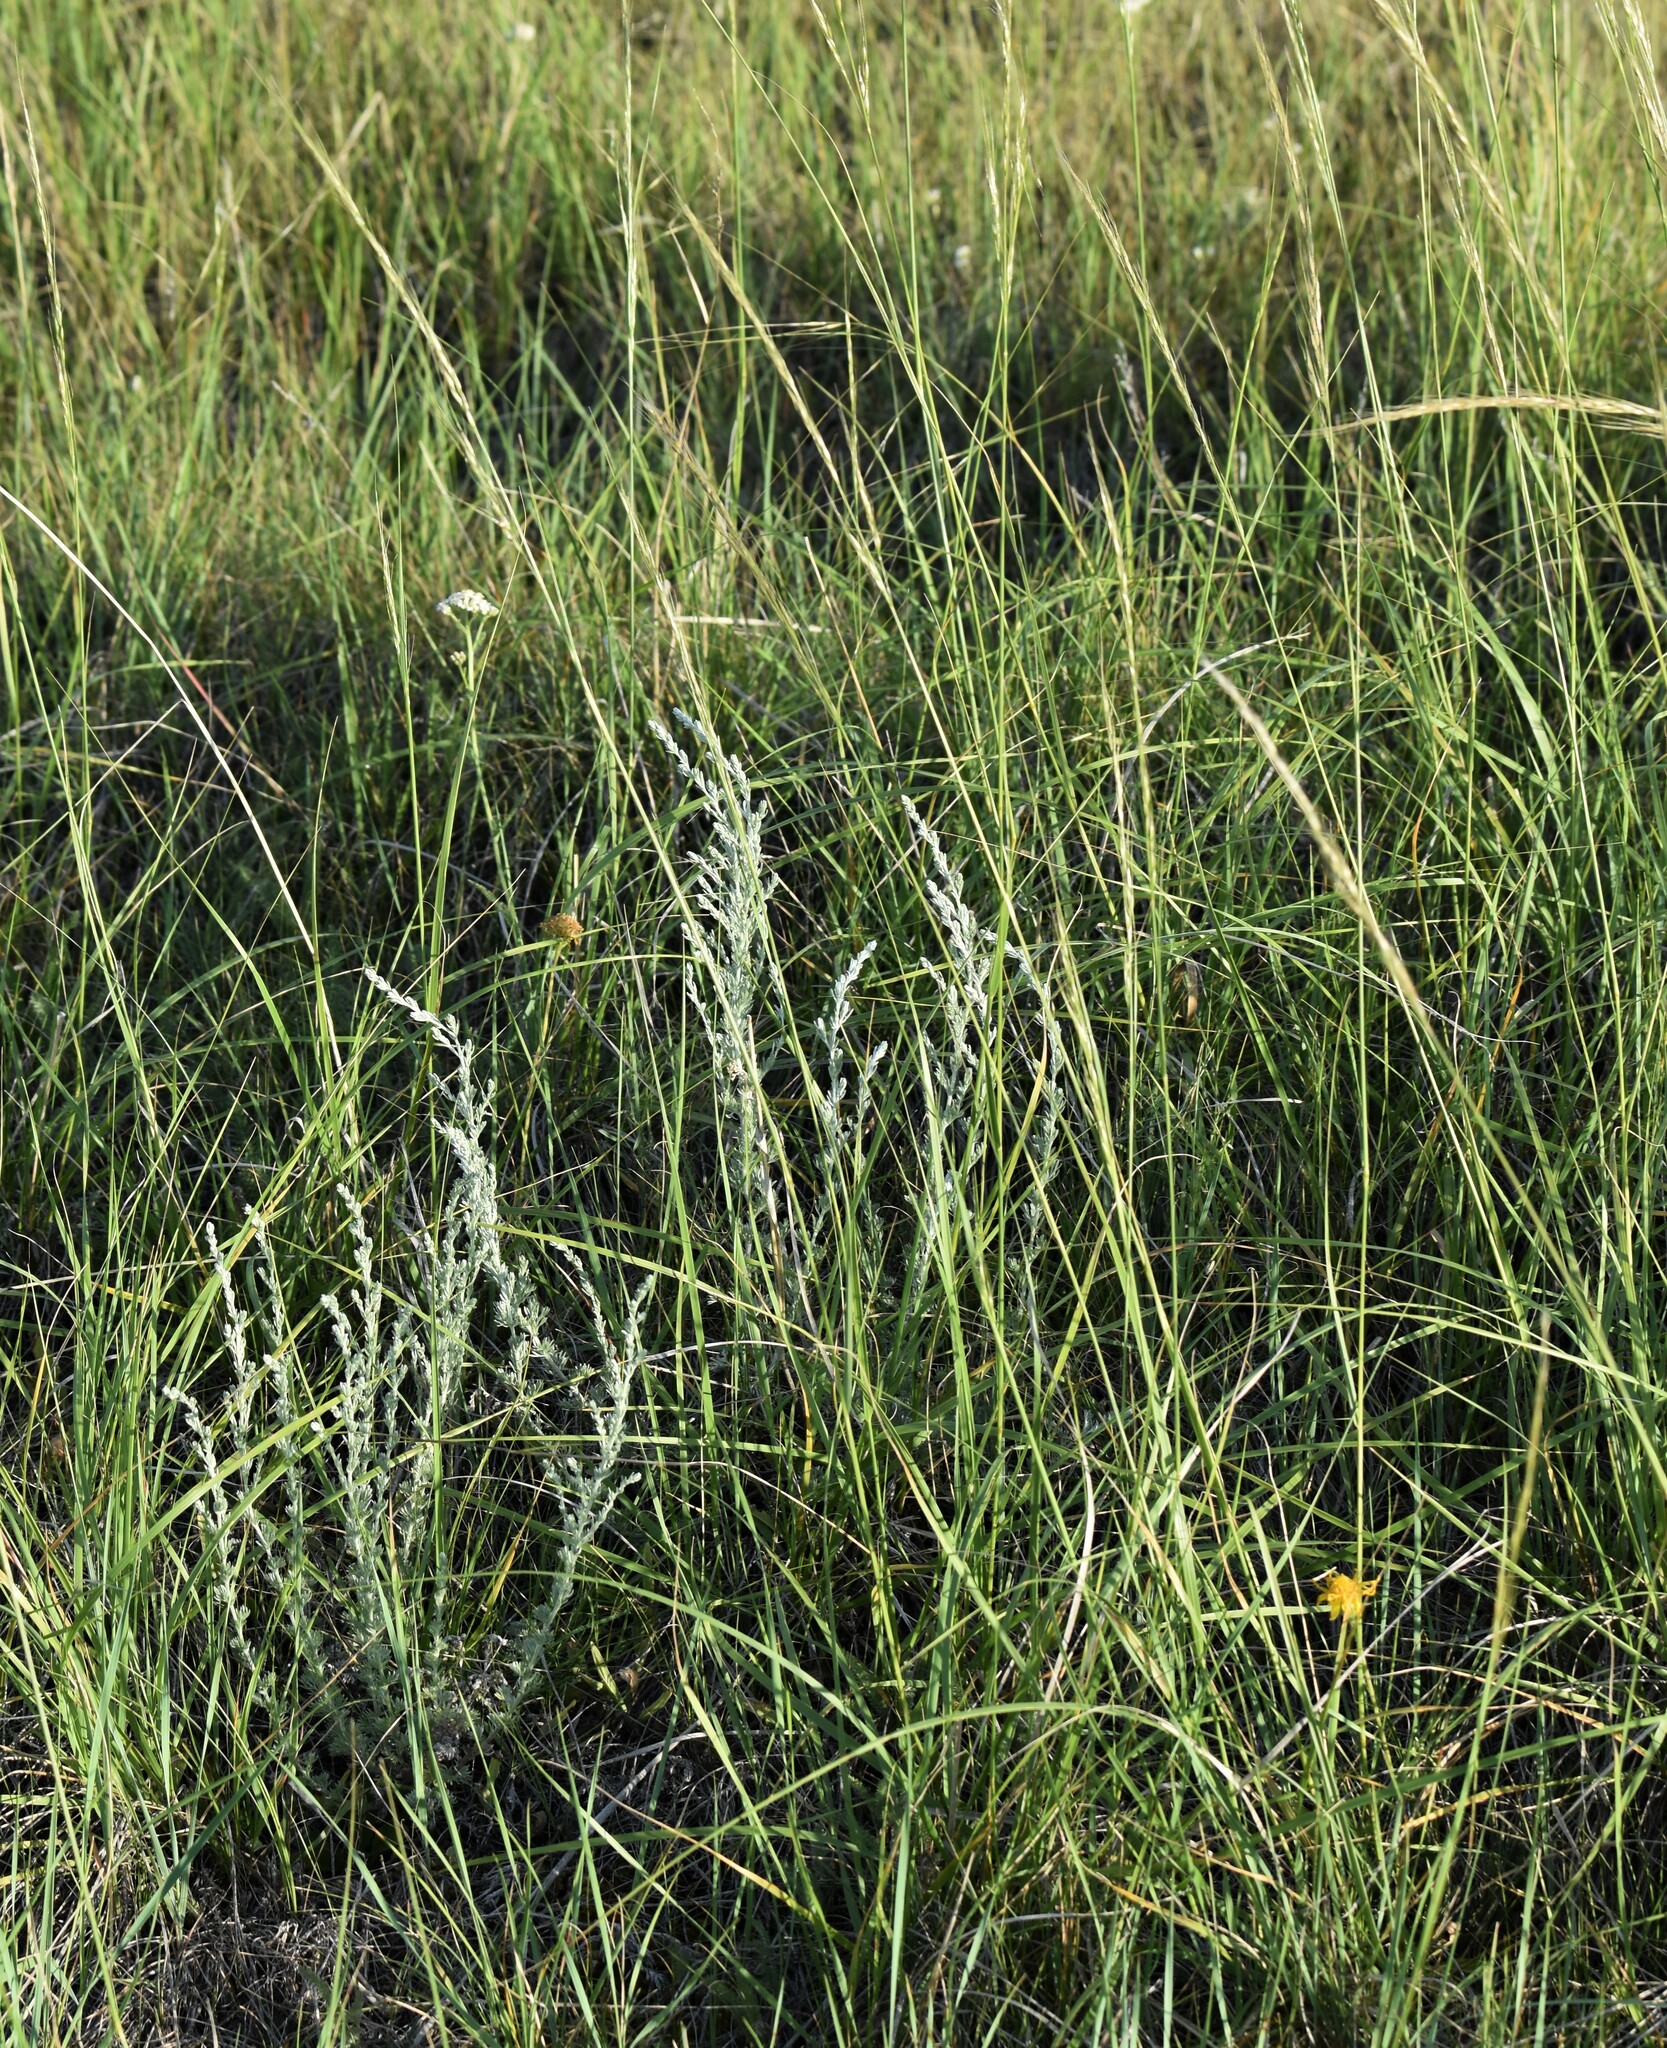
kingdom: Plantae
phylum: Tracheophyta
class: Liliopsida
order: Poales
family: Poaceae
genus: Nassella
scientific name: Nassella viridula
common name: Green needlegrass
